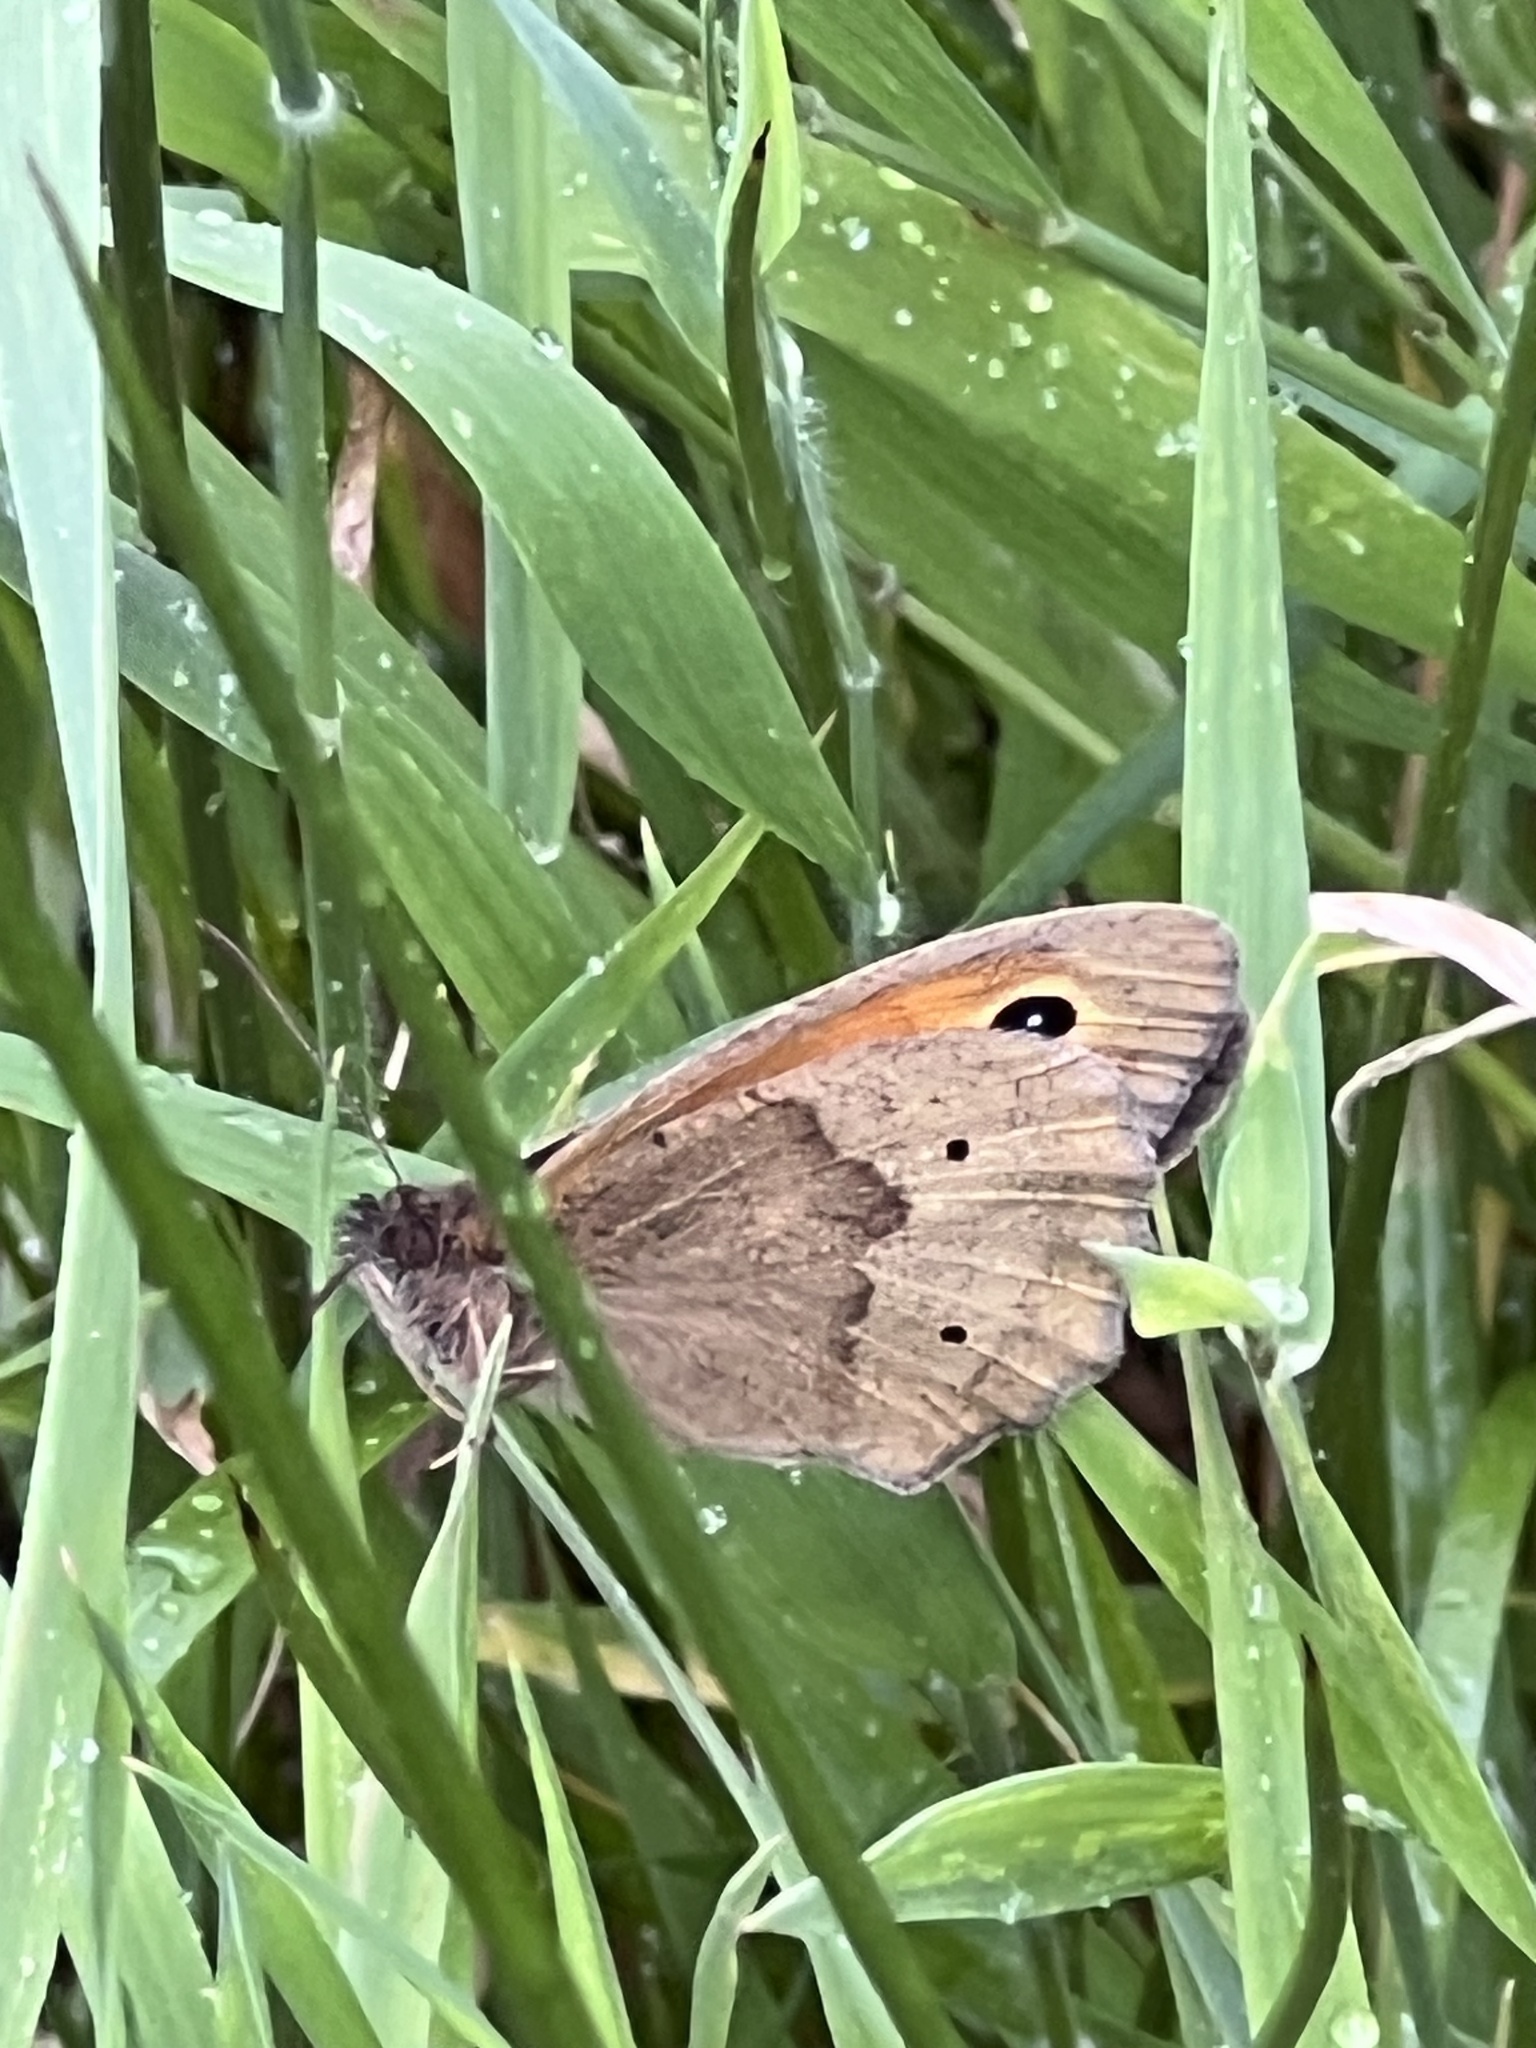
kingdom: Animalia
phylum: Arthropoda
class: Insecta
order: Lepidoptera
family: Nymphalidae
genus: Maniola
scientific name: Maniola jurtina
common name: Meadow brown
